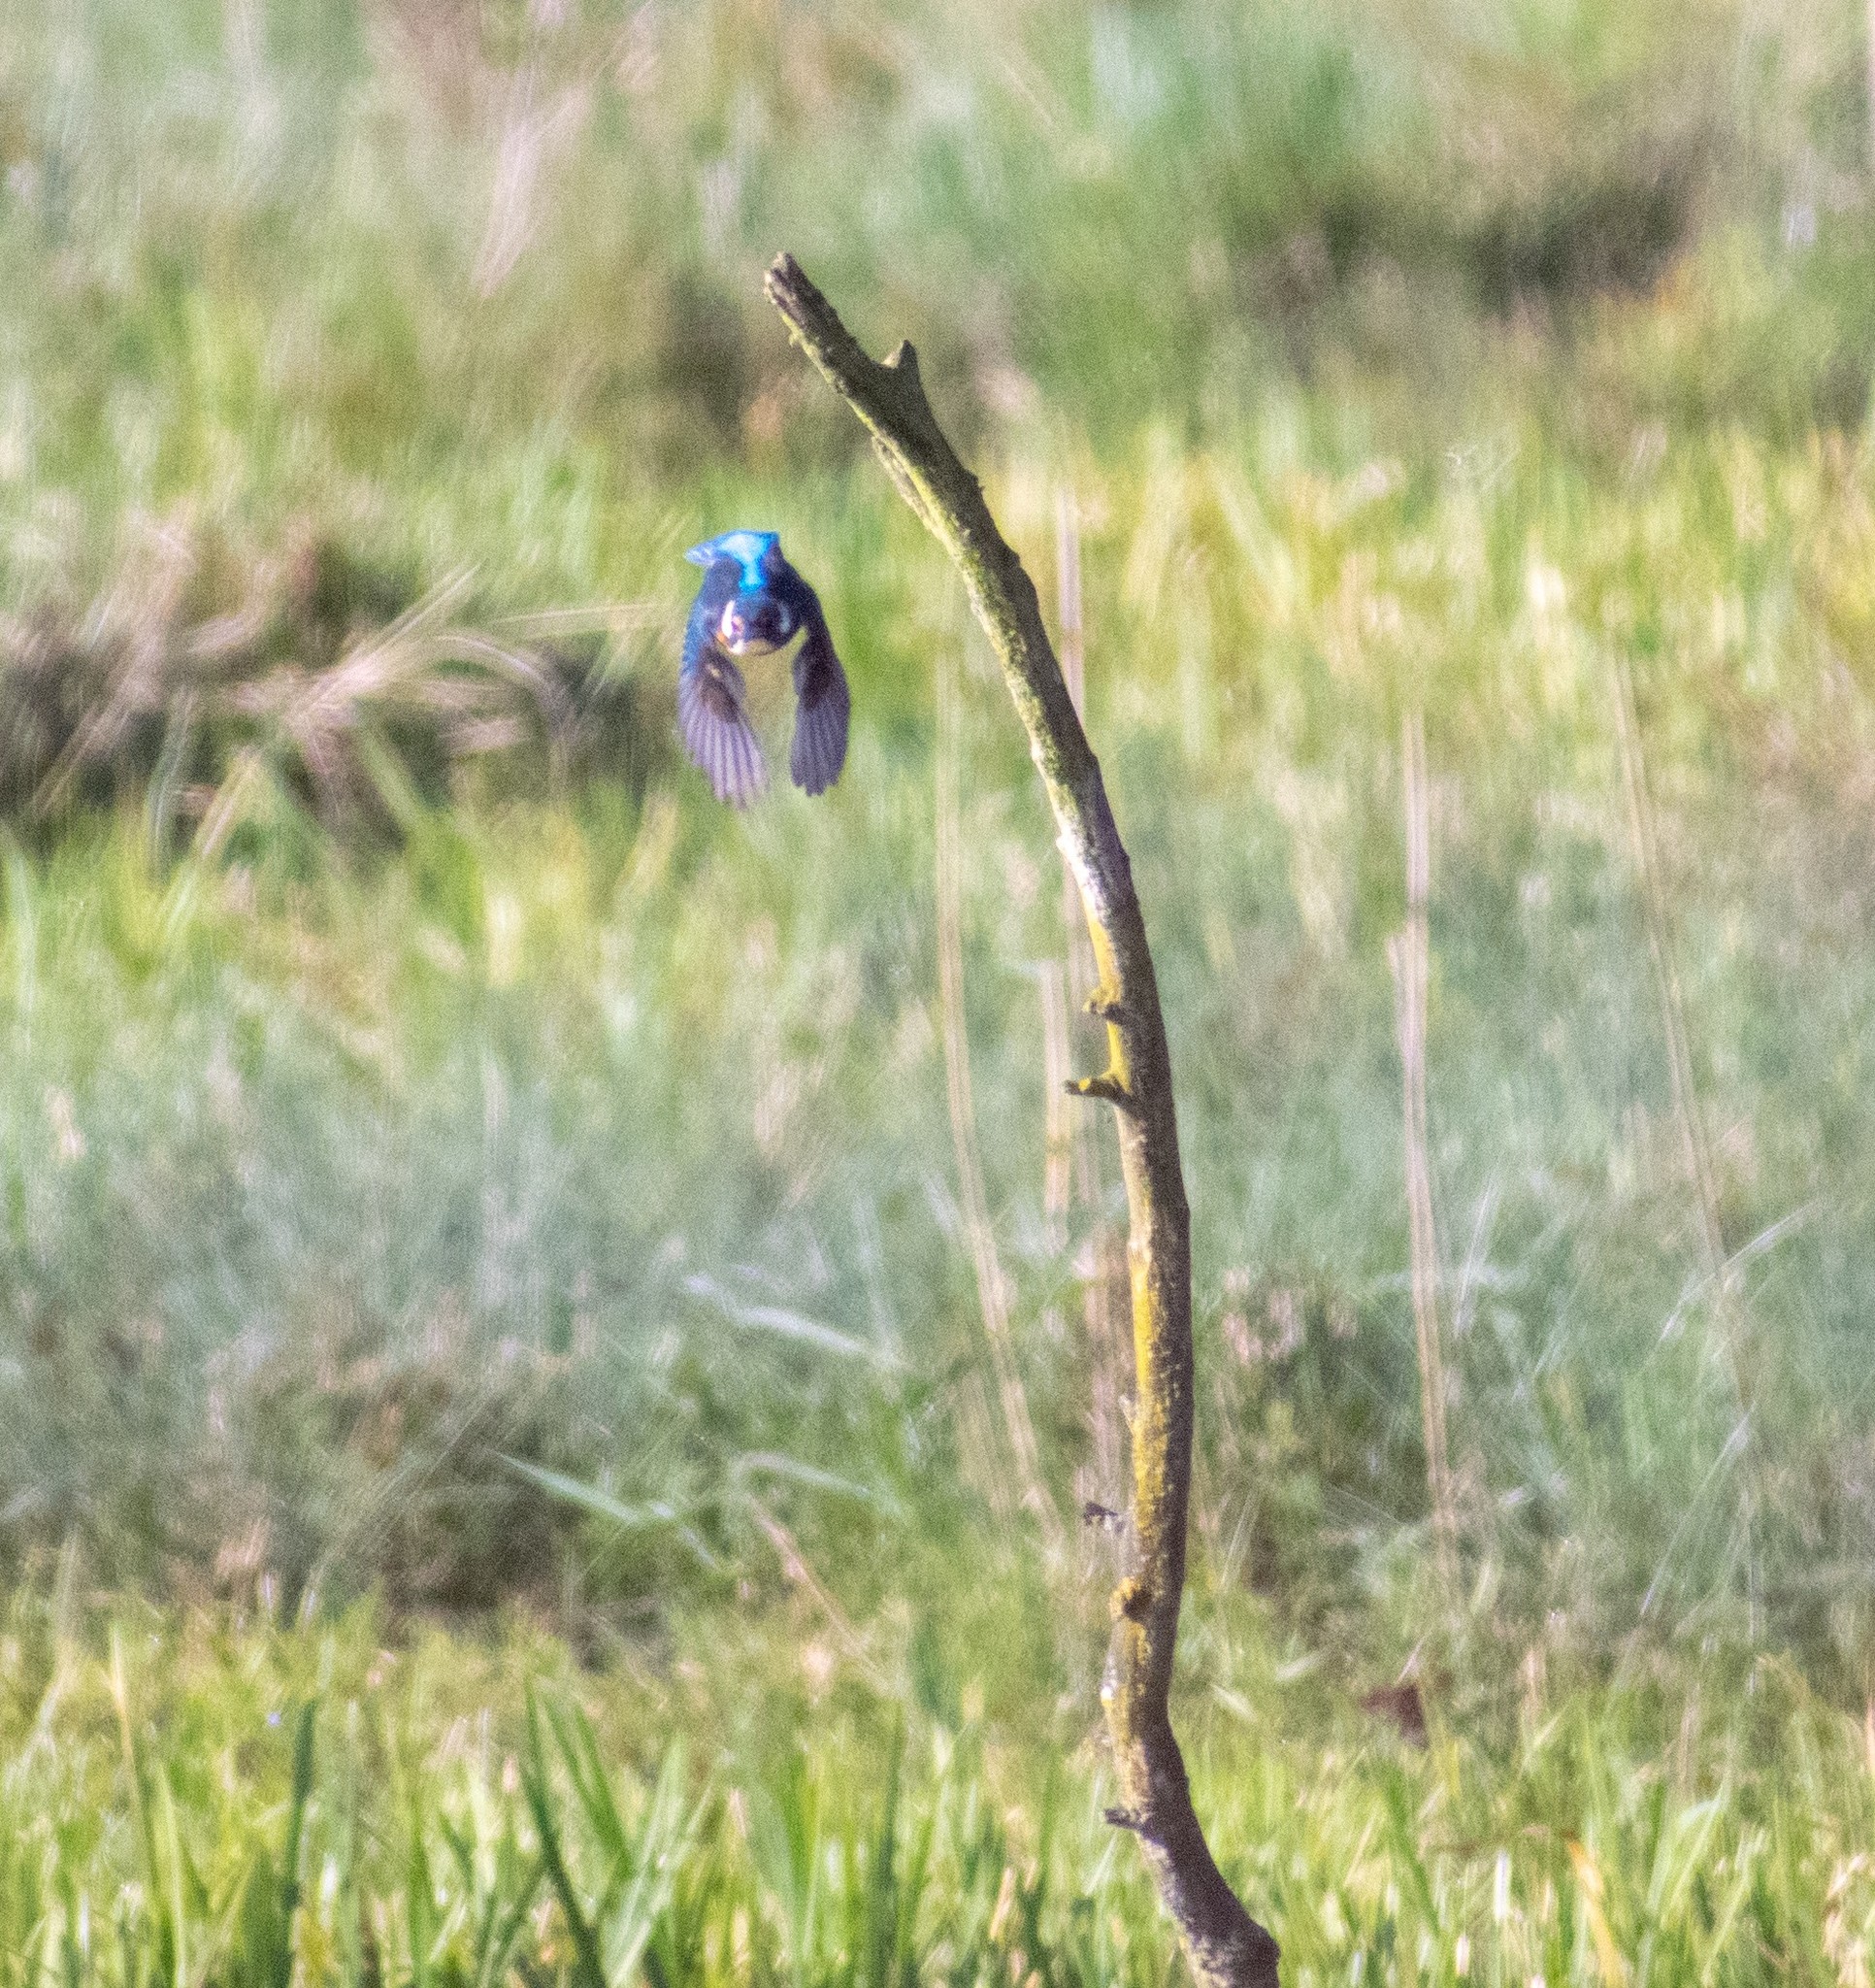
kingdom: Animalia
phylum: Chordata
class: Aves
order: Coraciiformes
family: Alcedinidae
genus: Alcedo
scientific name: Alcedo atthis
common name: Common kingfisher
